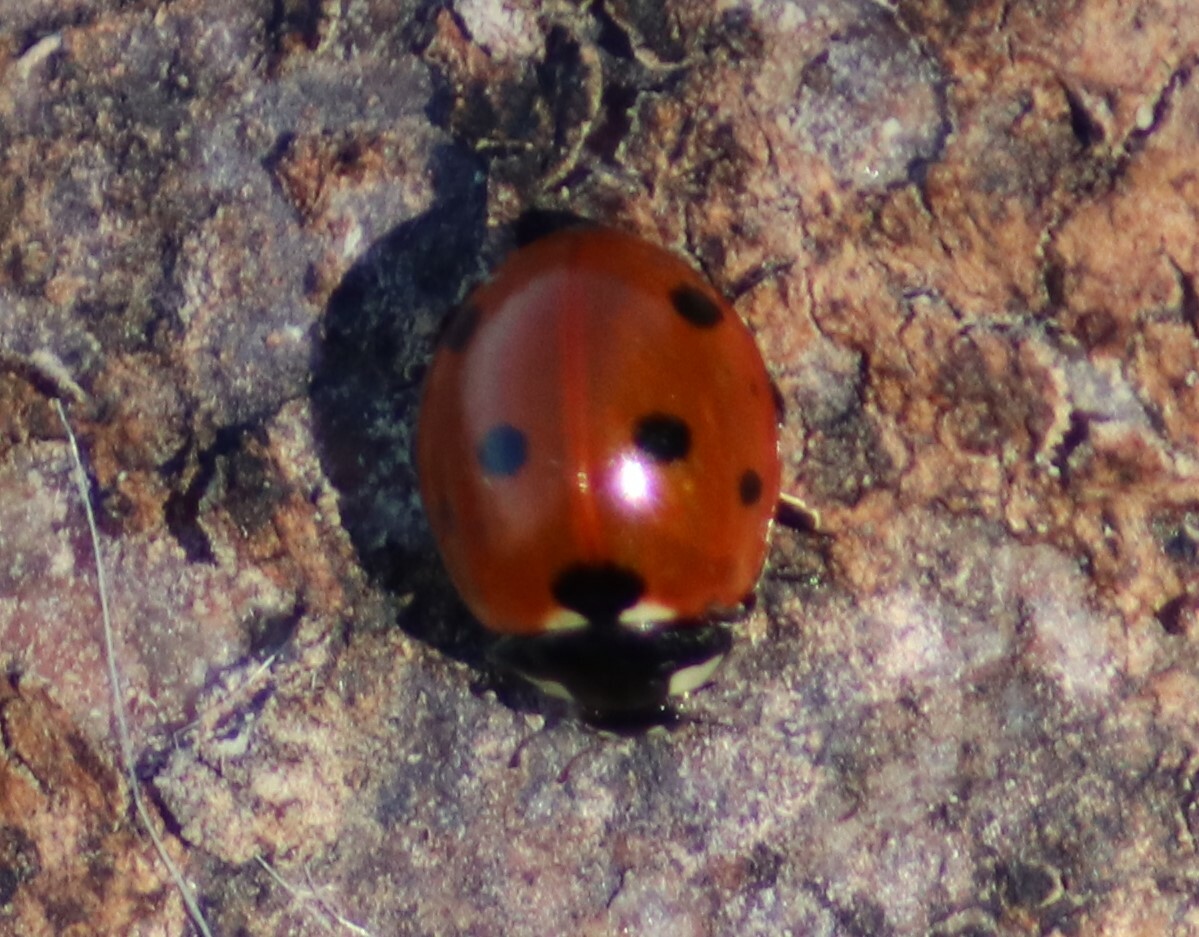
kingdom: Animalia
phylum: Arthropoda
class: Insecta
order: Coleoptera
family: Coccinellidae
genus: Coccinella
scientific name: Coccinella septempunctata
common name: Sevenspotted lady beetle
